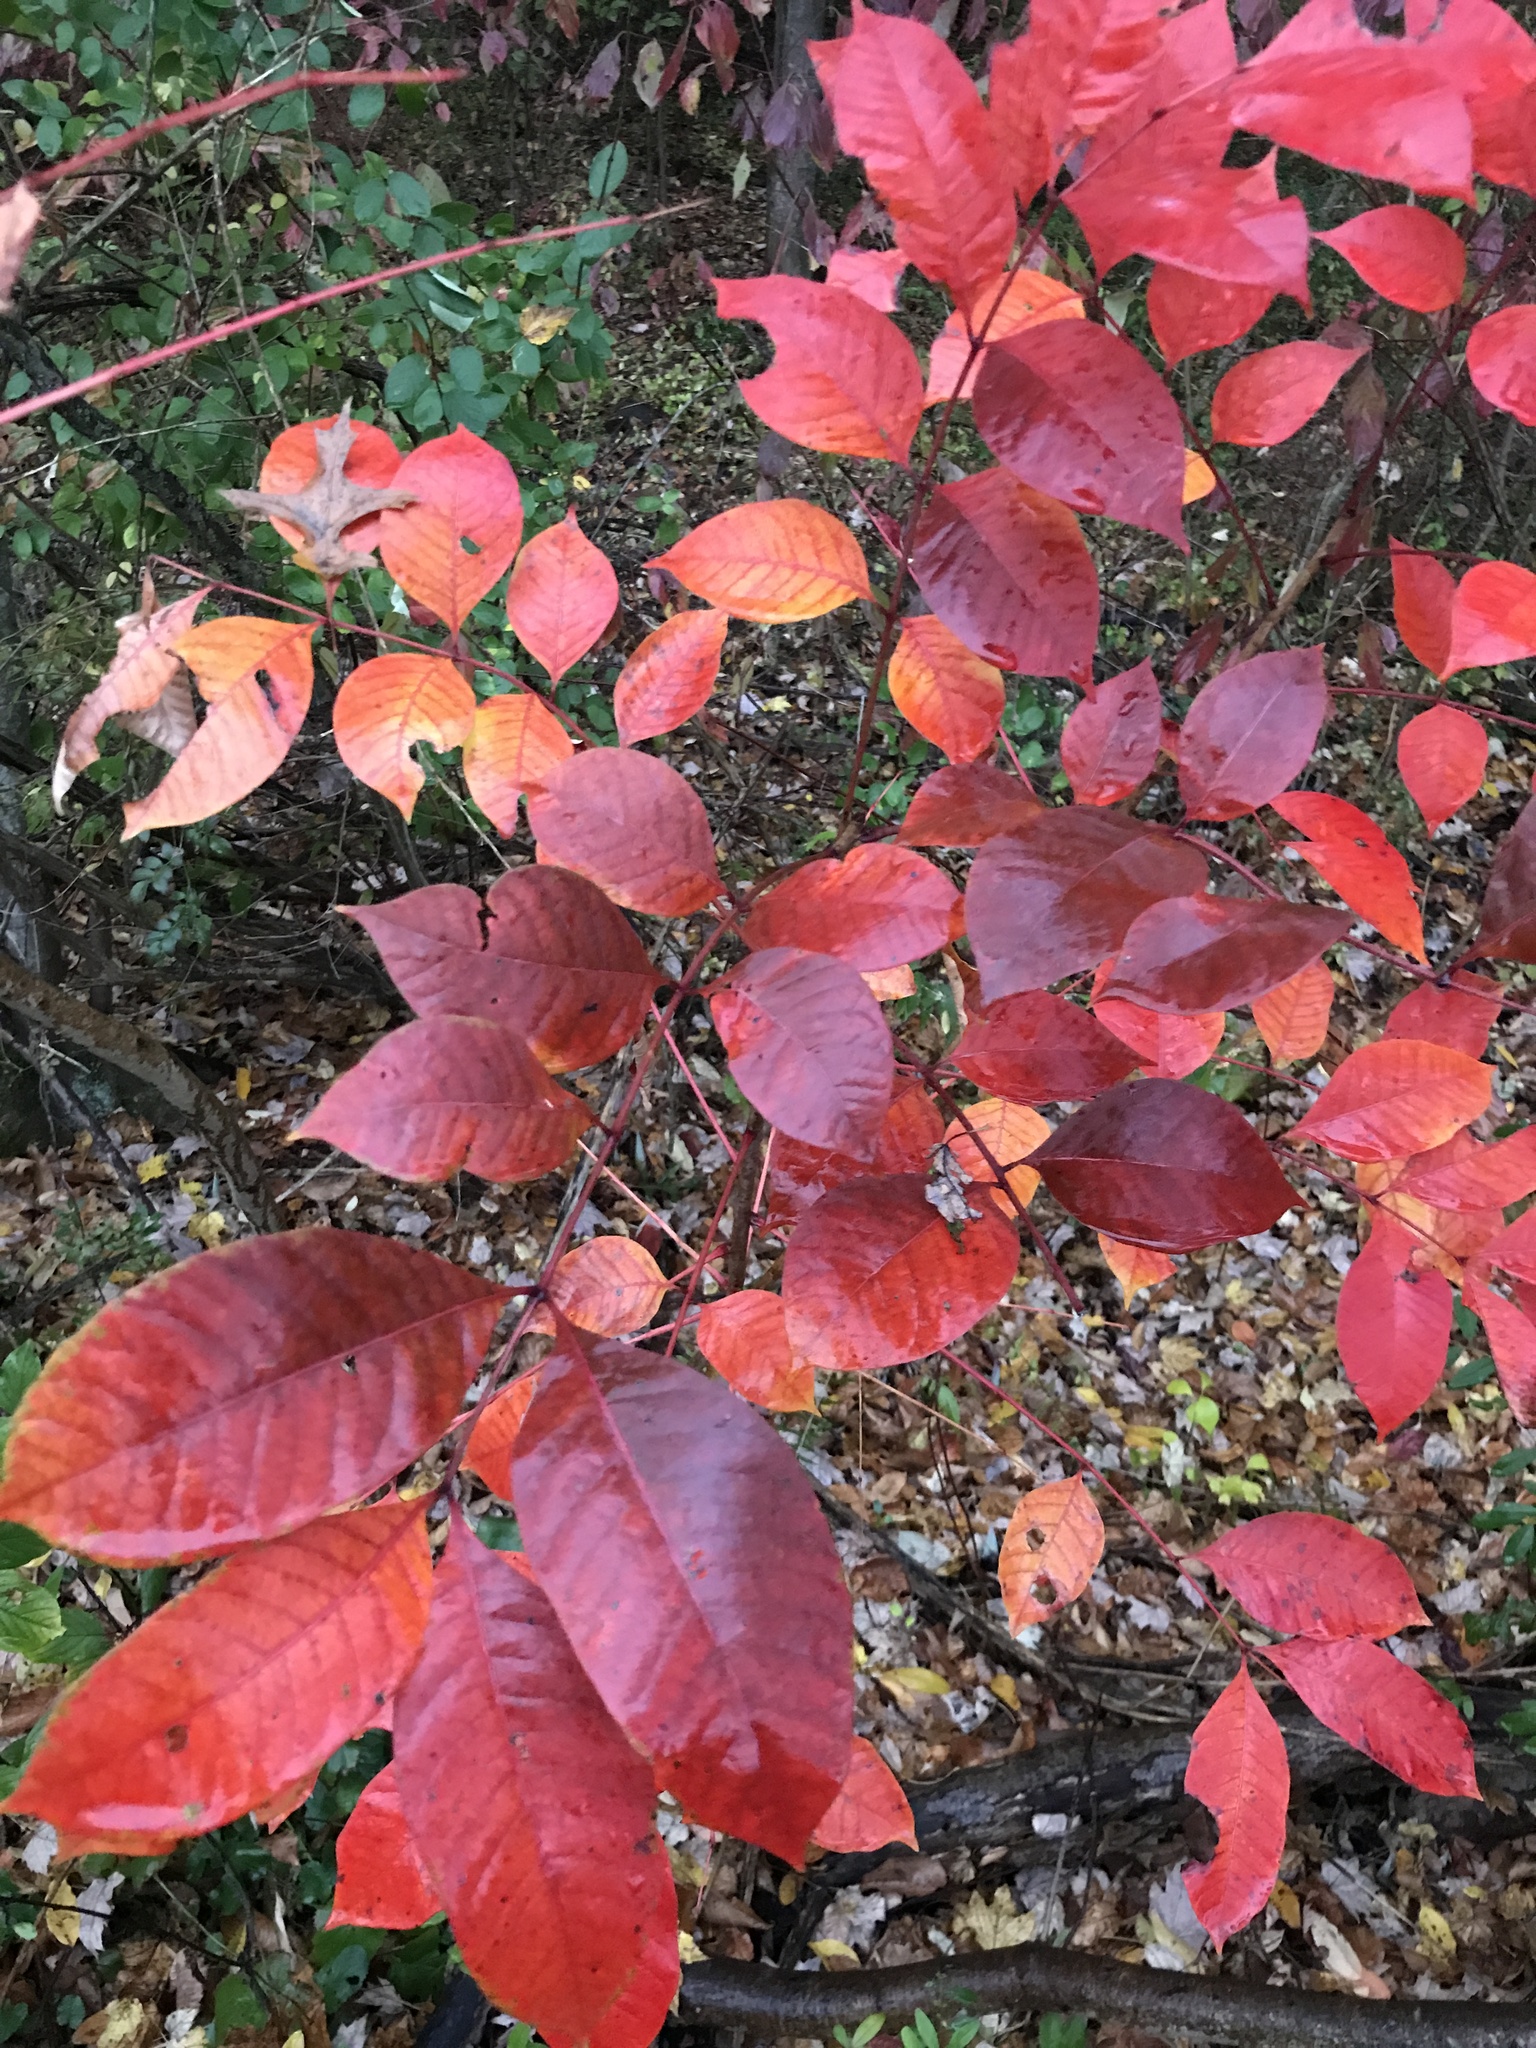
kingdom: Plantae
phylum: Tracheophyta
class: Magnoliopsida
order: Sapindales
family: Anacardiaceae
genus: Toxicodendron
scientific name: Toxicodendron vernix
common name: Poison sumac
